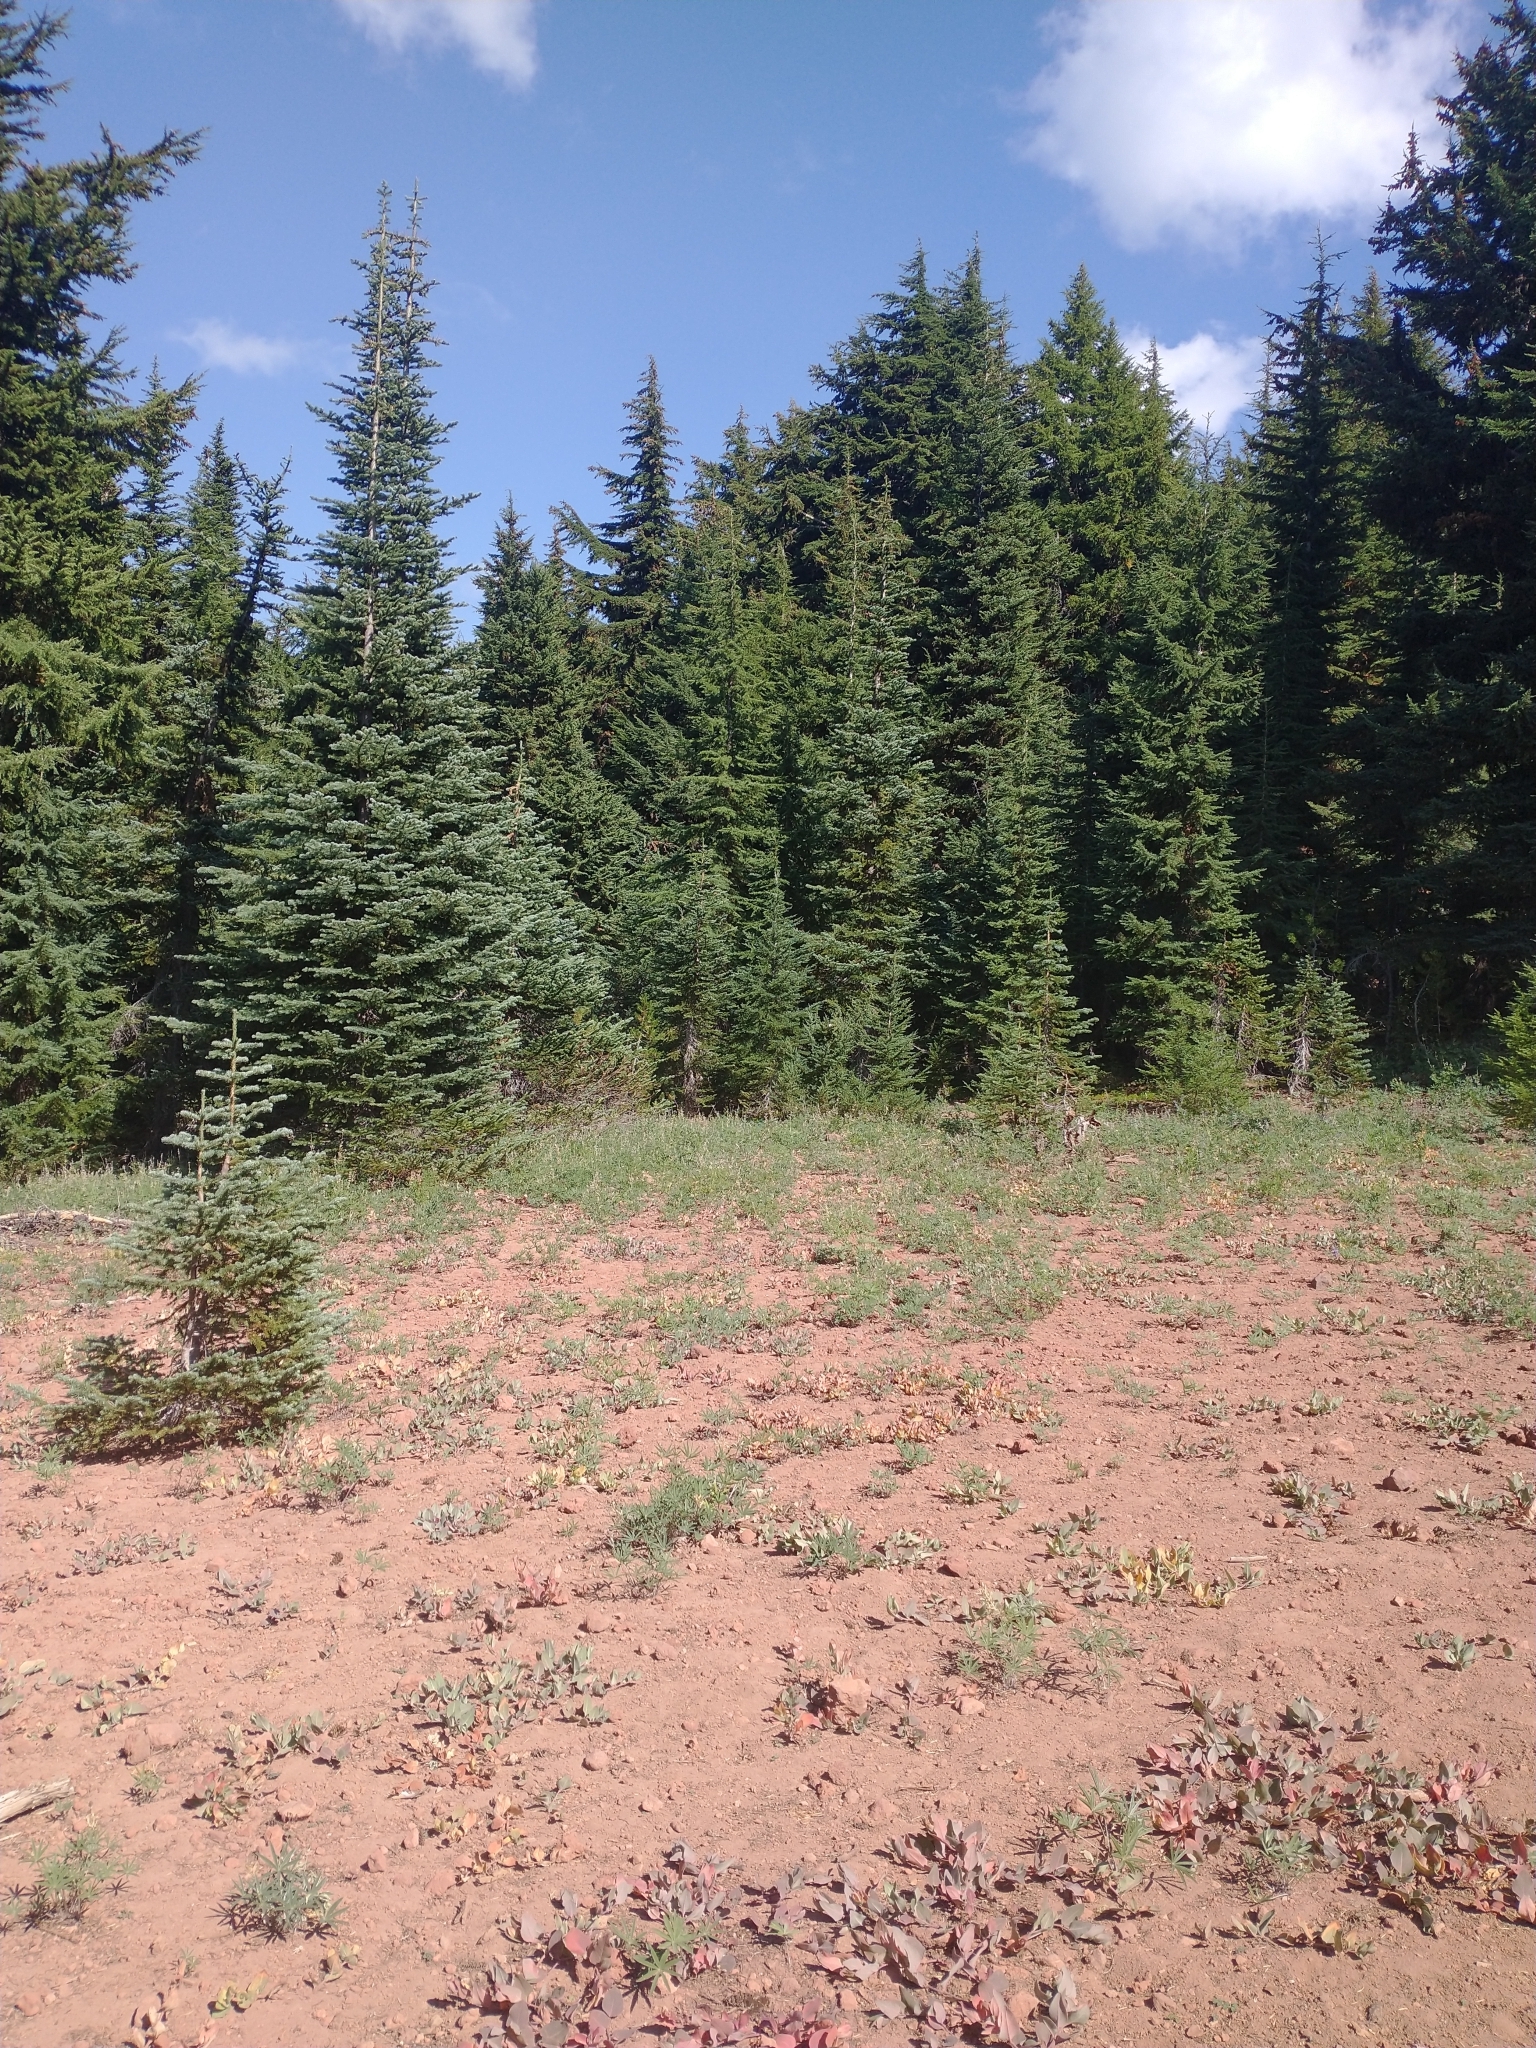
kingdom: Plantae
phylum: Tracheophyta
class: Magnoliopsida
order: Caryophyllales
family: Polygonaceae
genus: Koenigia
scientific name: Koenigia davisiae
